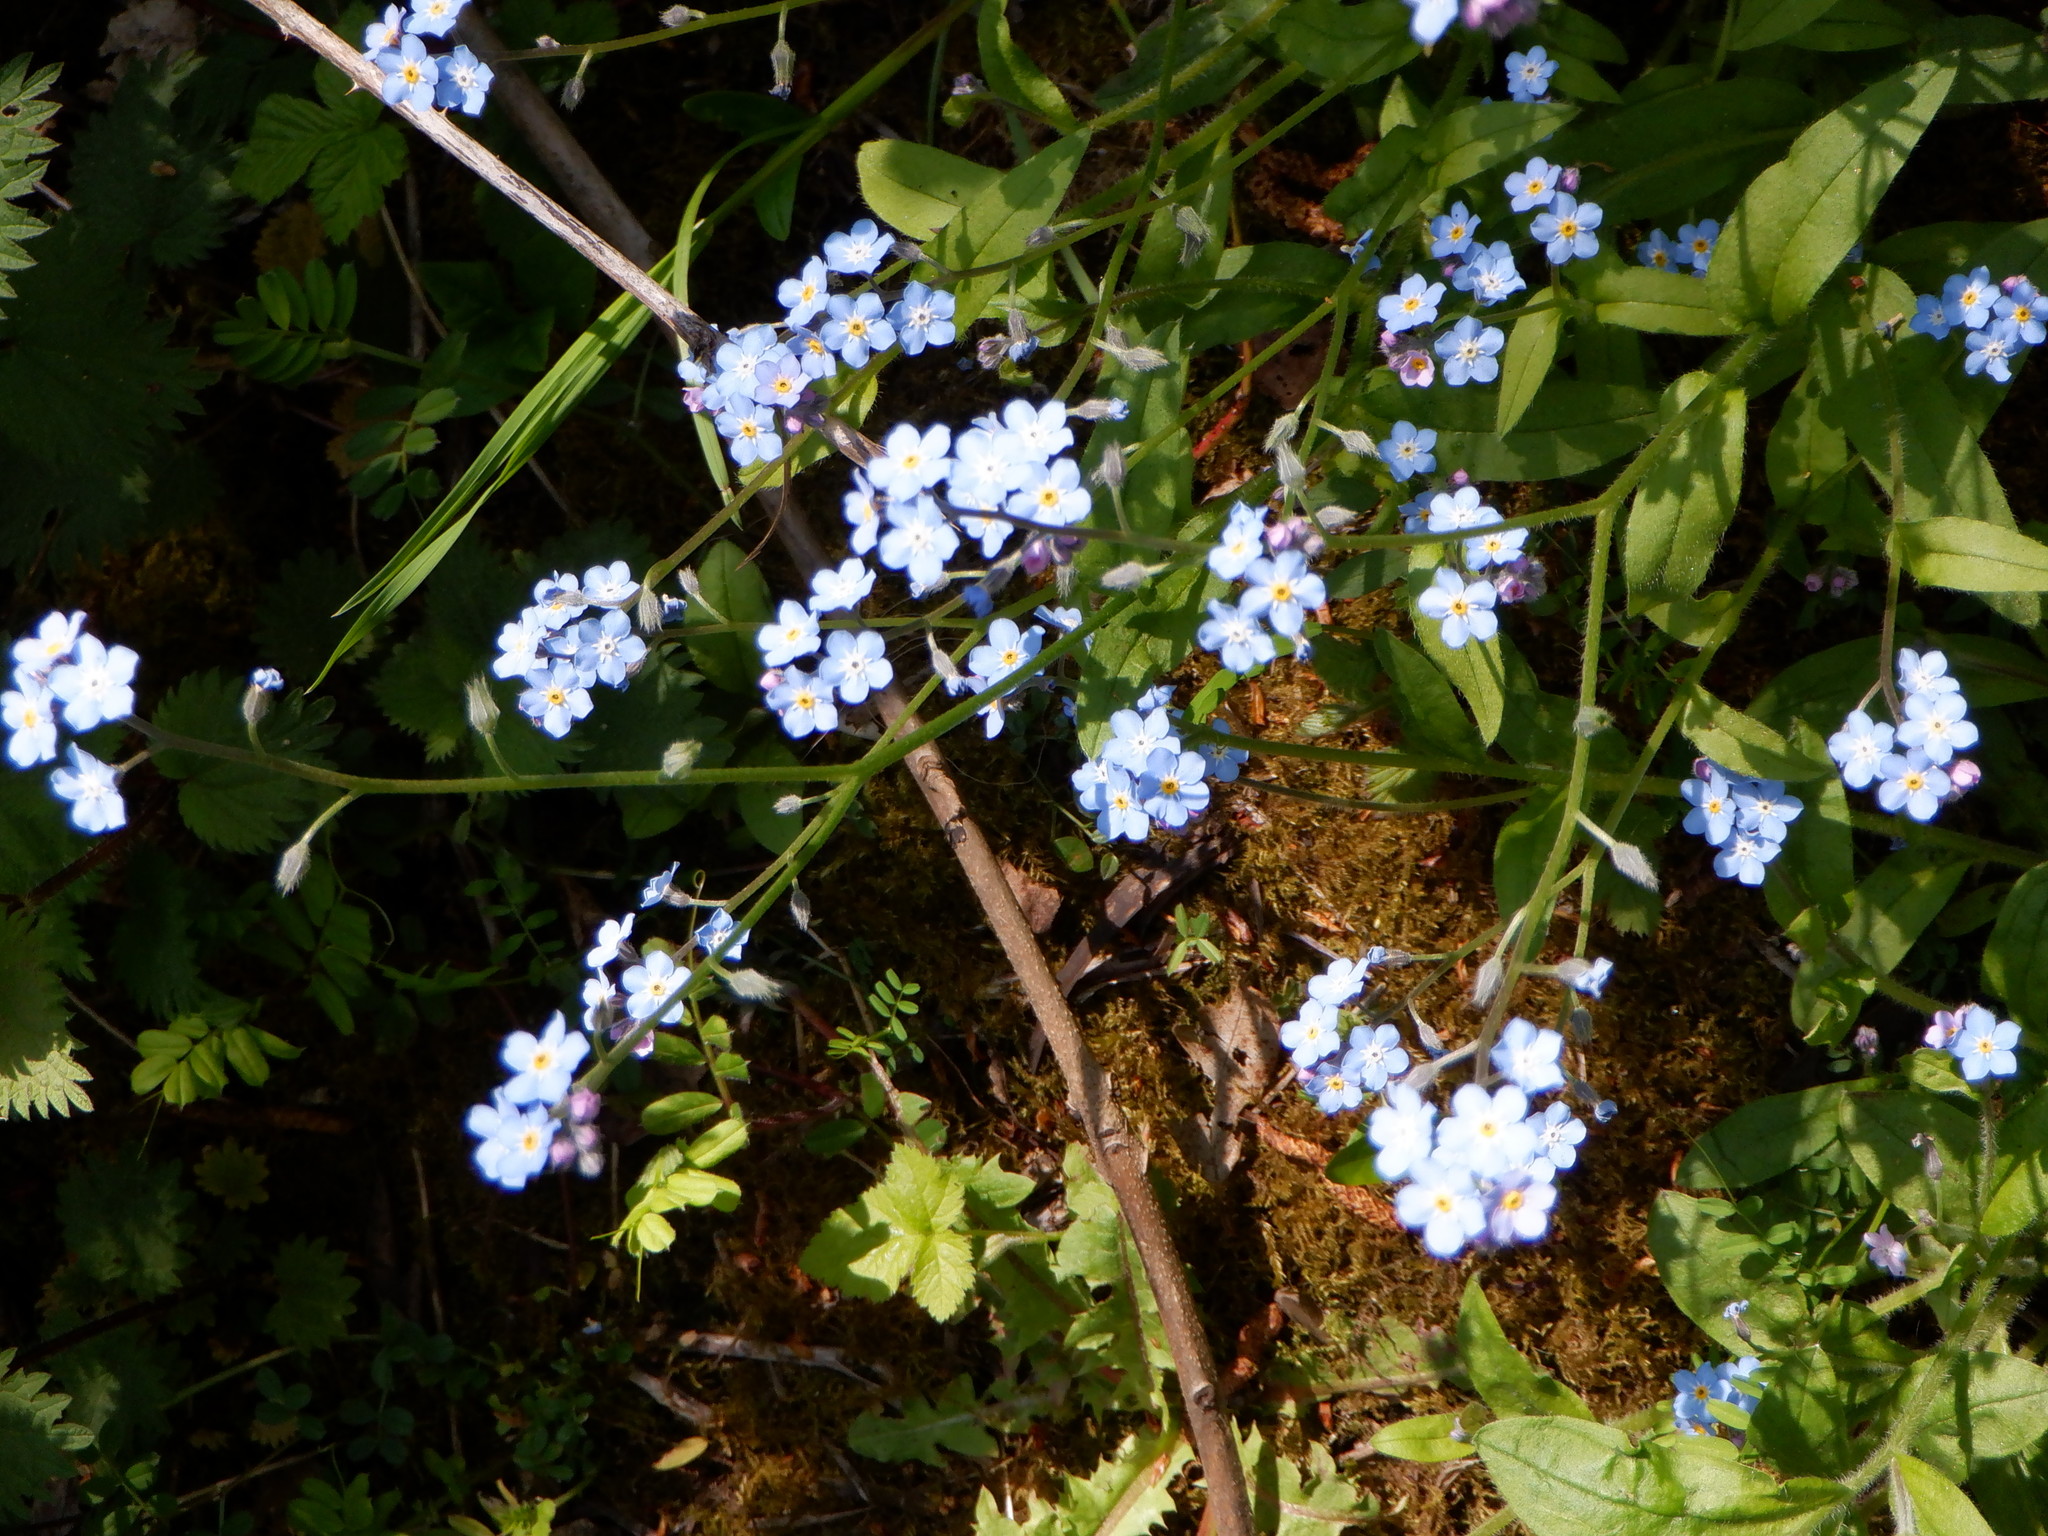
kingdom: Plantae
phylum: Tracheophyta
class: Magnoliopsida
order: Boraginales
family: Boraginaceae
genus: Myosotis
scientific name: Myosotis sylvatica
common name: Wood forget-me-not
